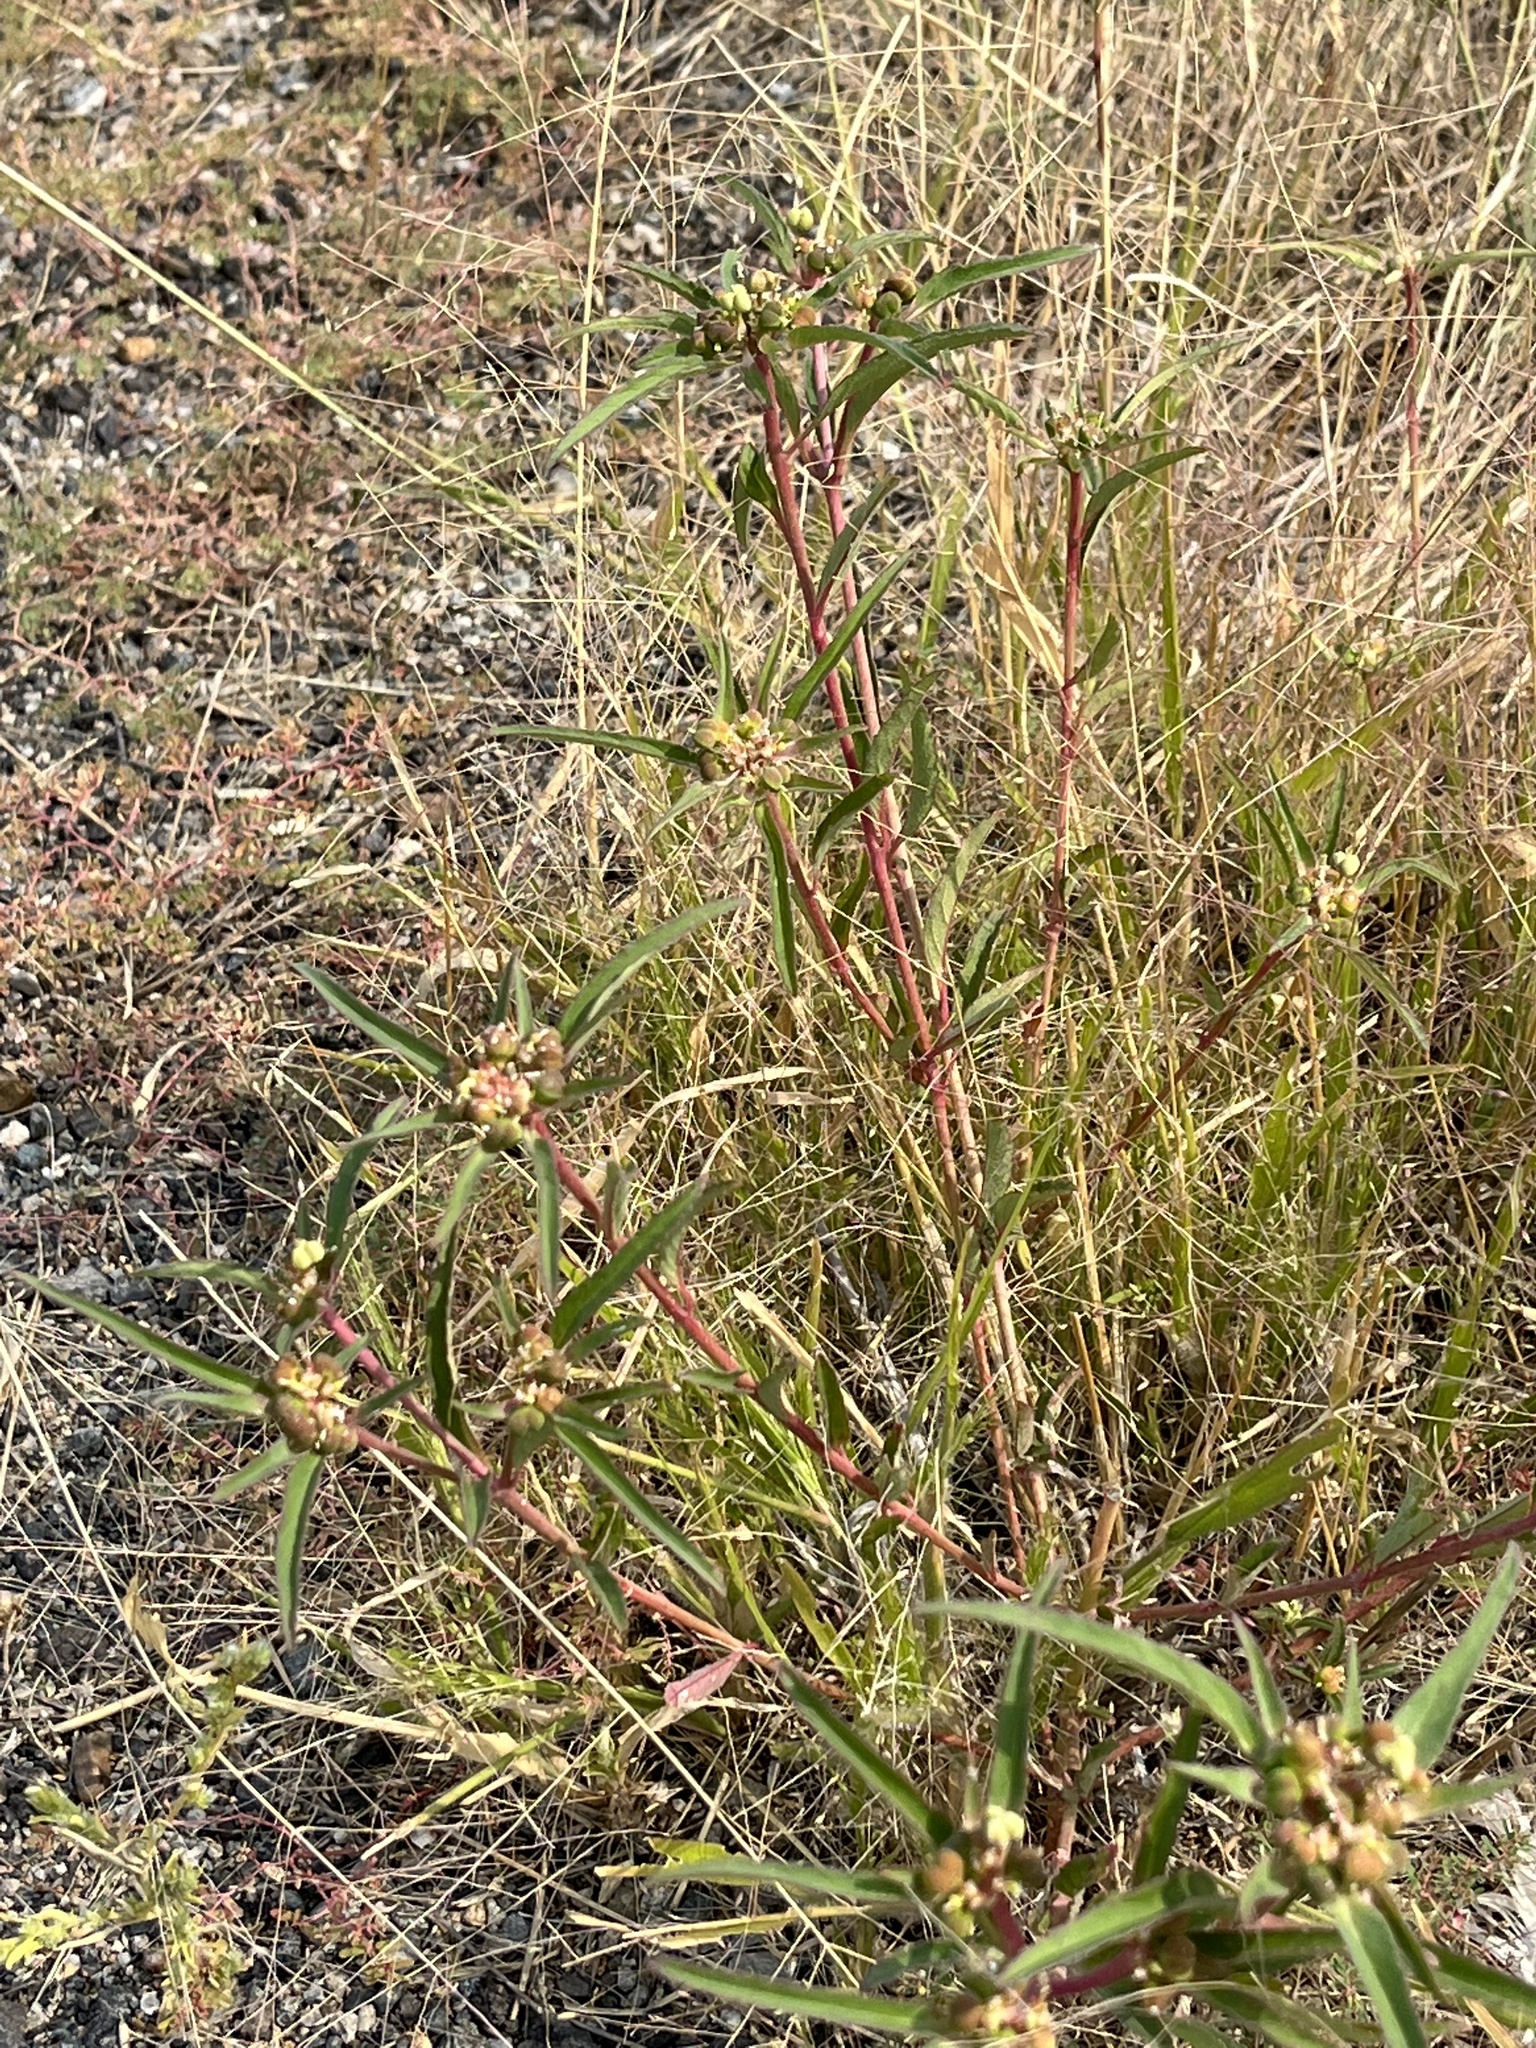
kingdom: Plantae
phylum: Tracheophyta
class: Magnoliopsida
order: Malpighiales
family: Euphorbiaceae
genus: Euphorbia
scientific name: Euphorbia davidii
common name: David's spurge
